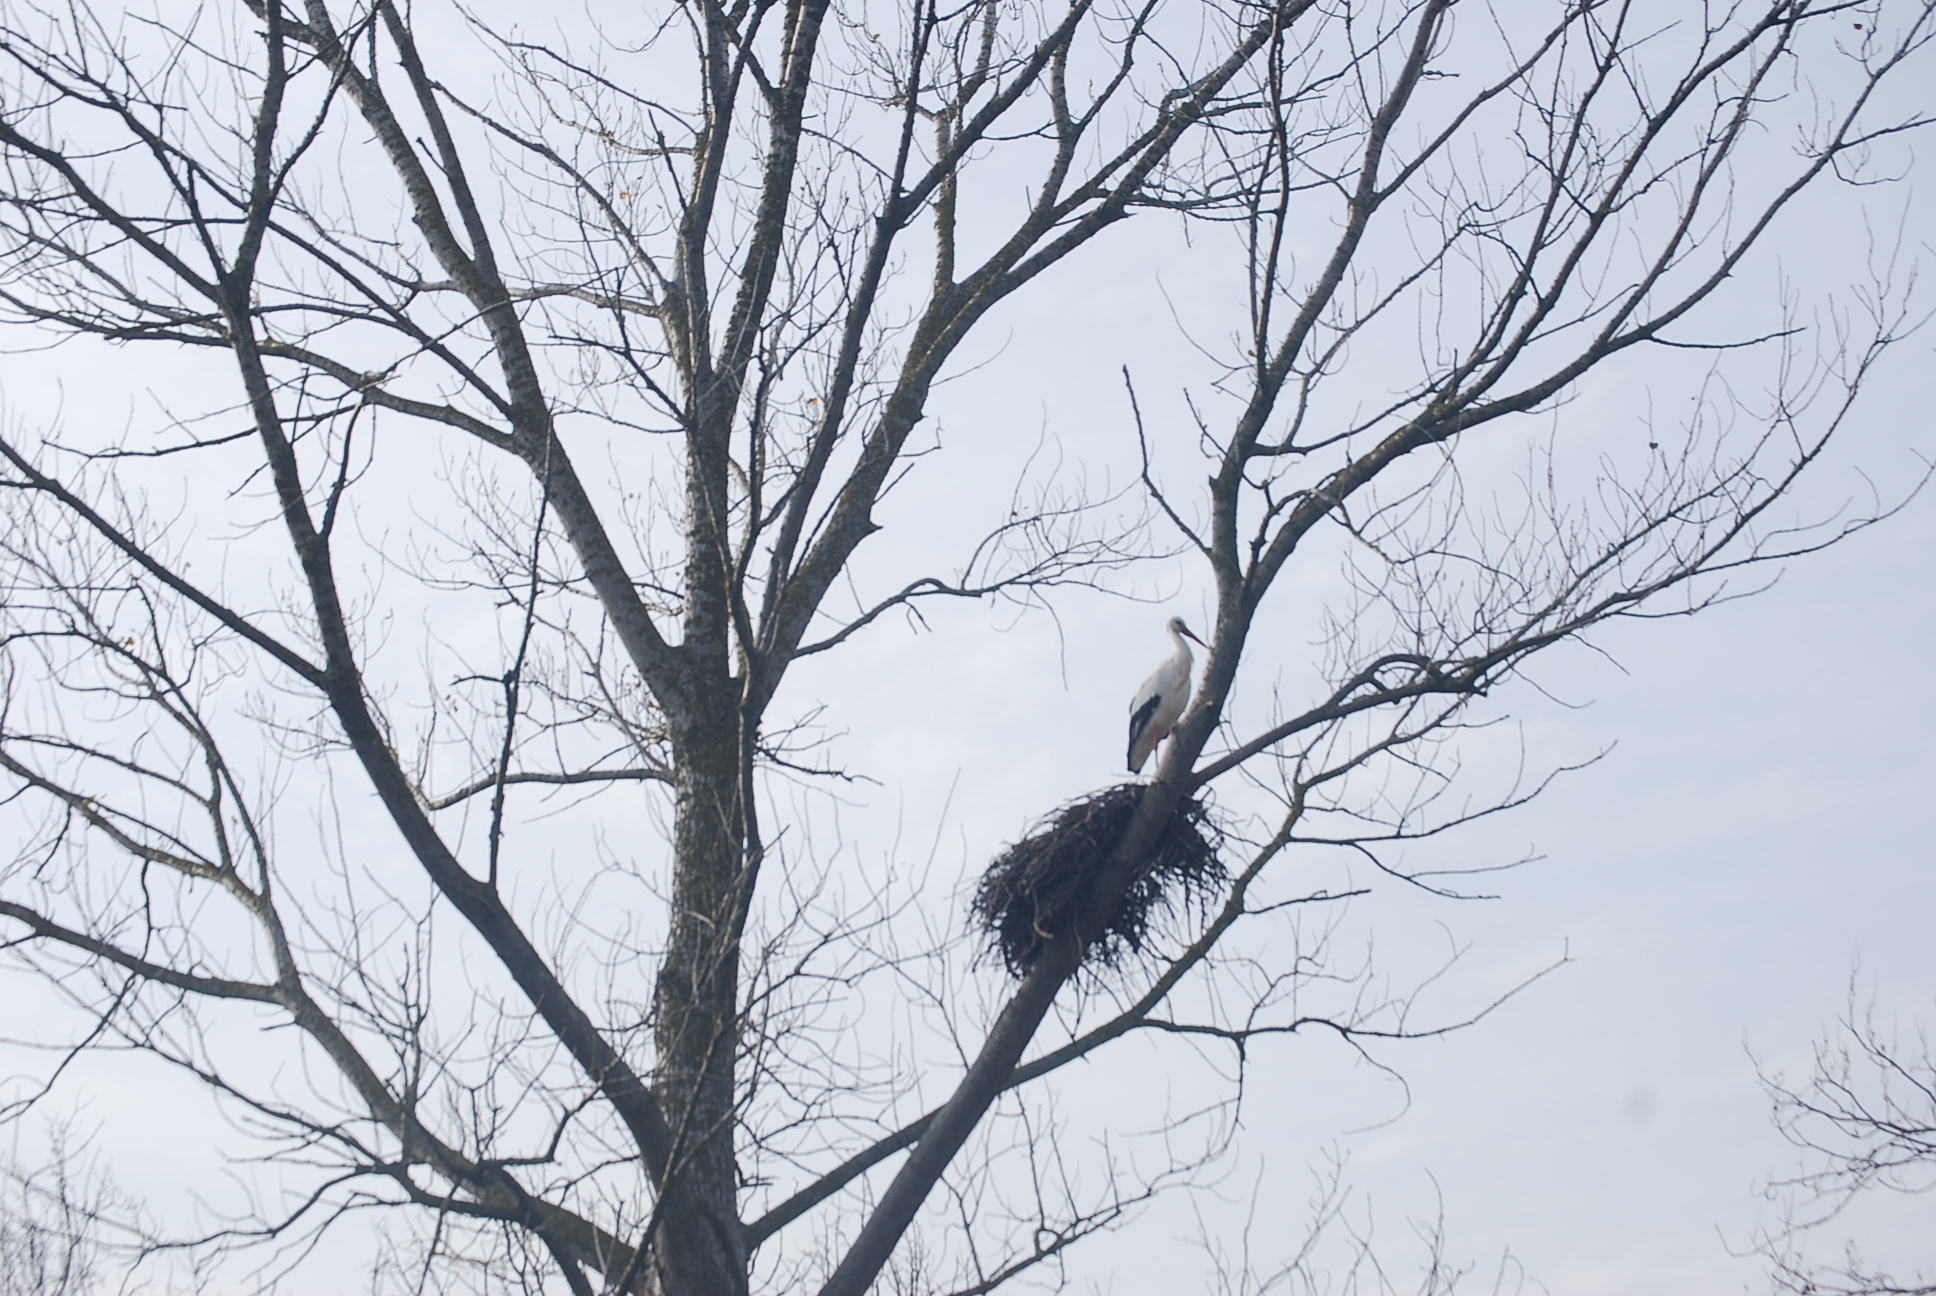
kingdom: Animalia
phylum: Chordata
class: Aves
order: Ciconiiformes
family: Ciconiidae
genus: Ciconia
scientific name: Ciconia ciconia
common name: White stork
